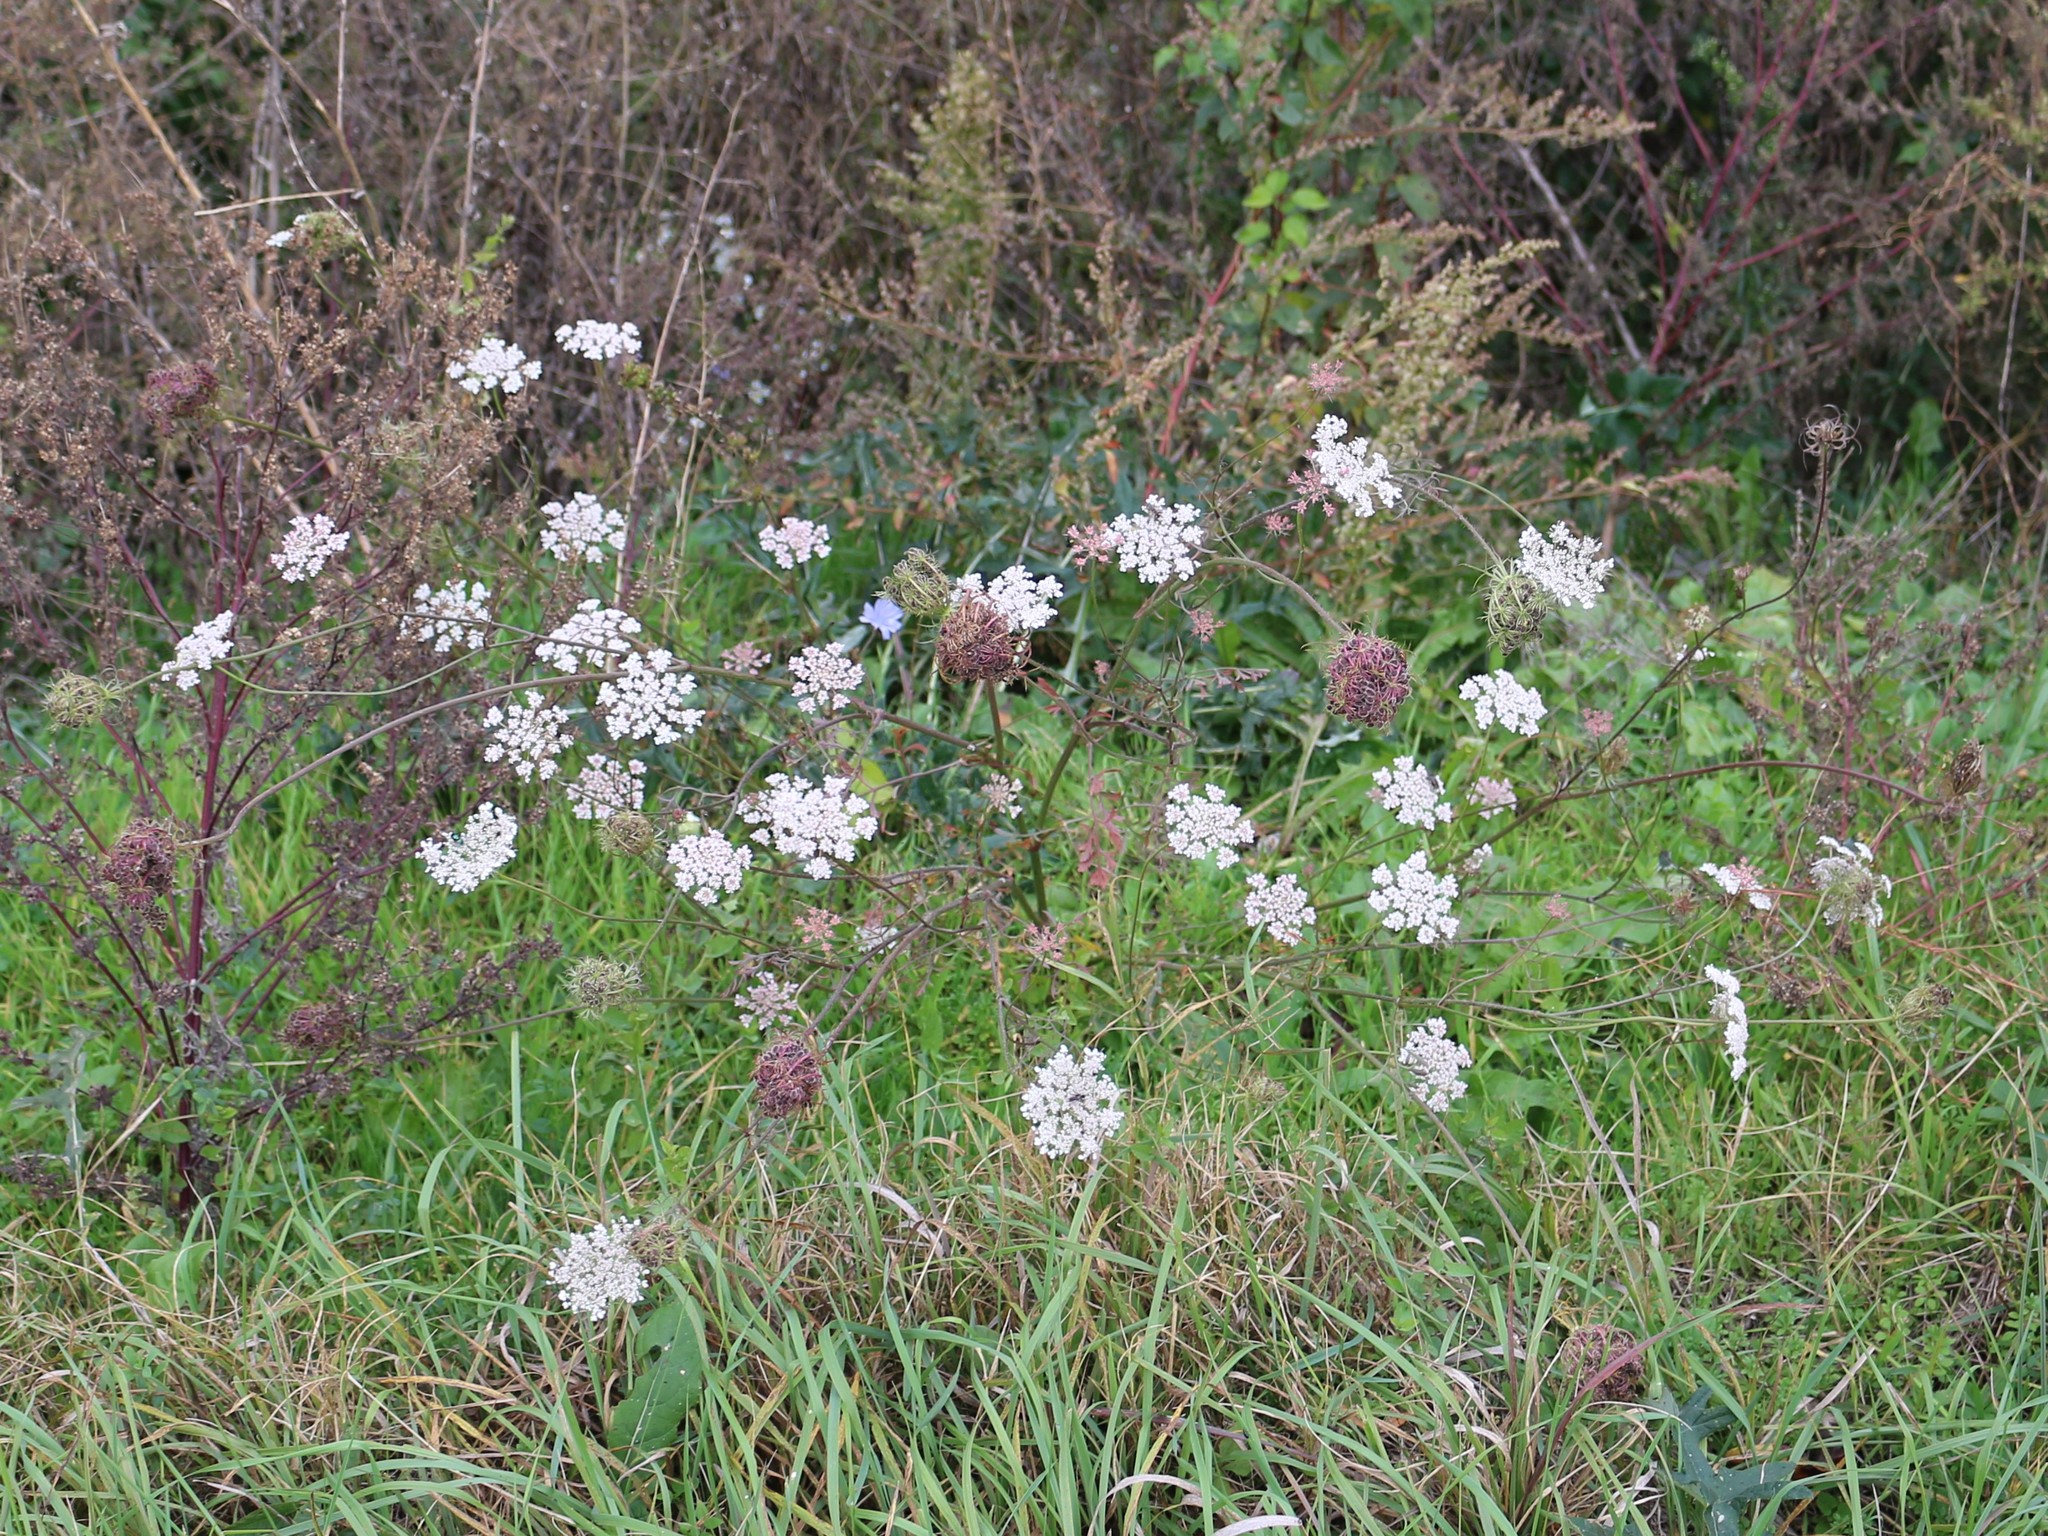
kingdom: Plantae
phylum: Tracheophyta
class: Magnoliopsida
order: Apiales
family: Apiaceae
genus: Daucus
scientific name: Daucus carota
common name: Wild carrot
